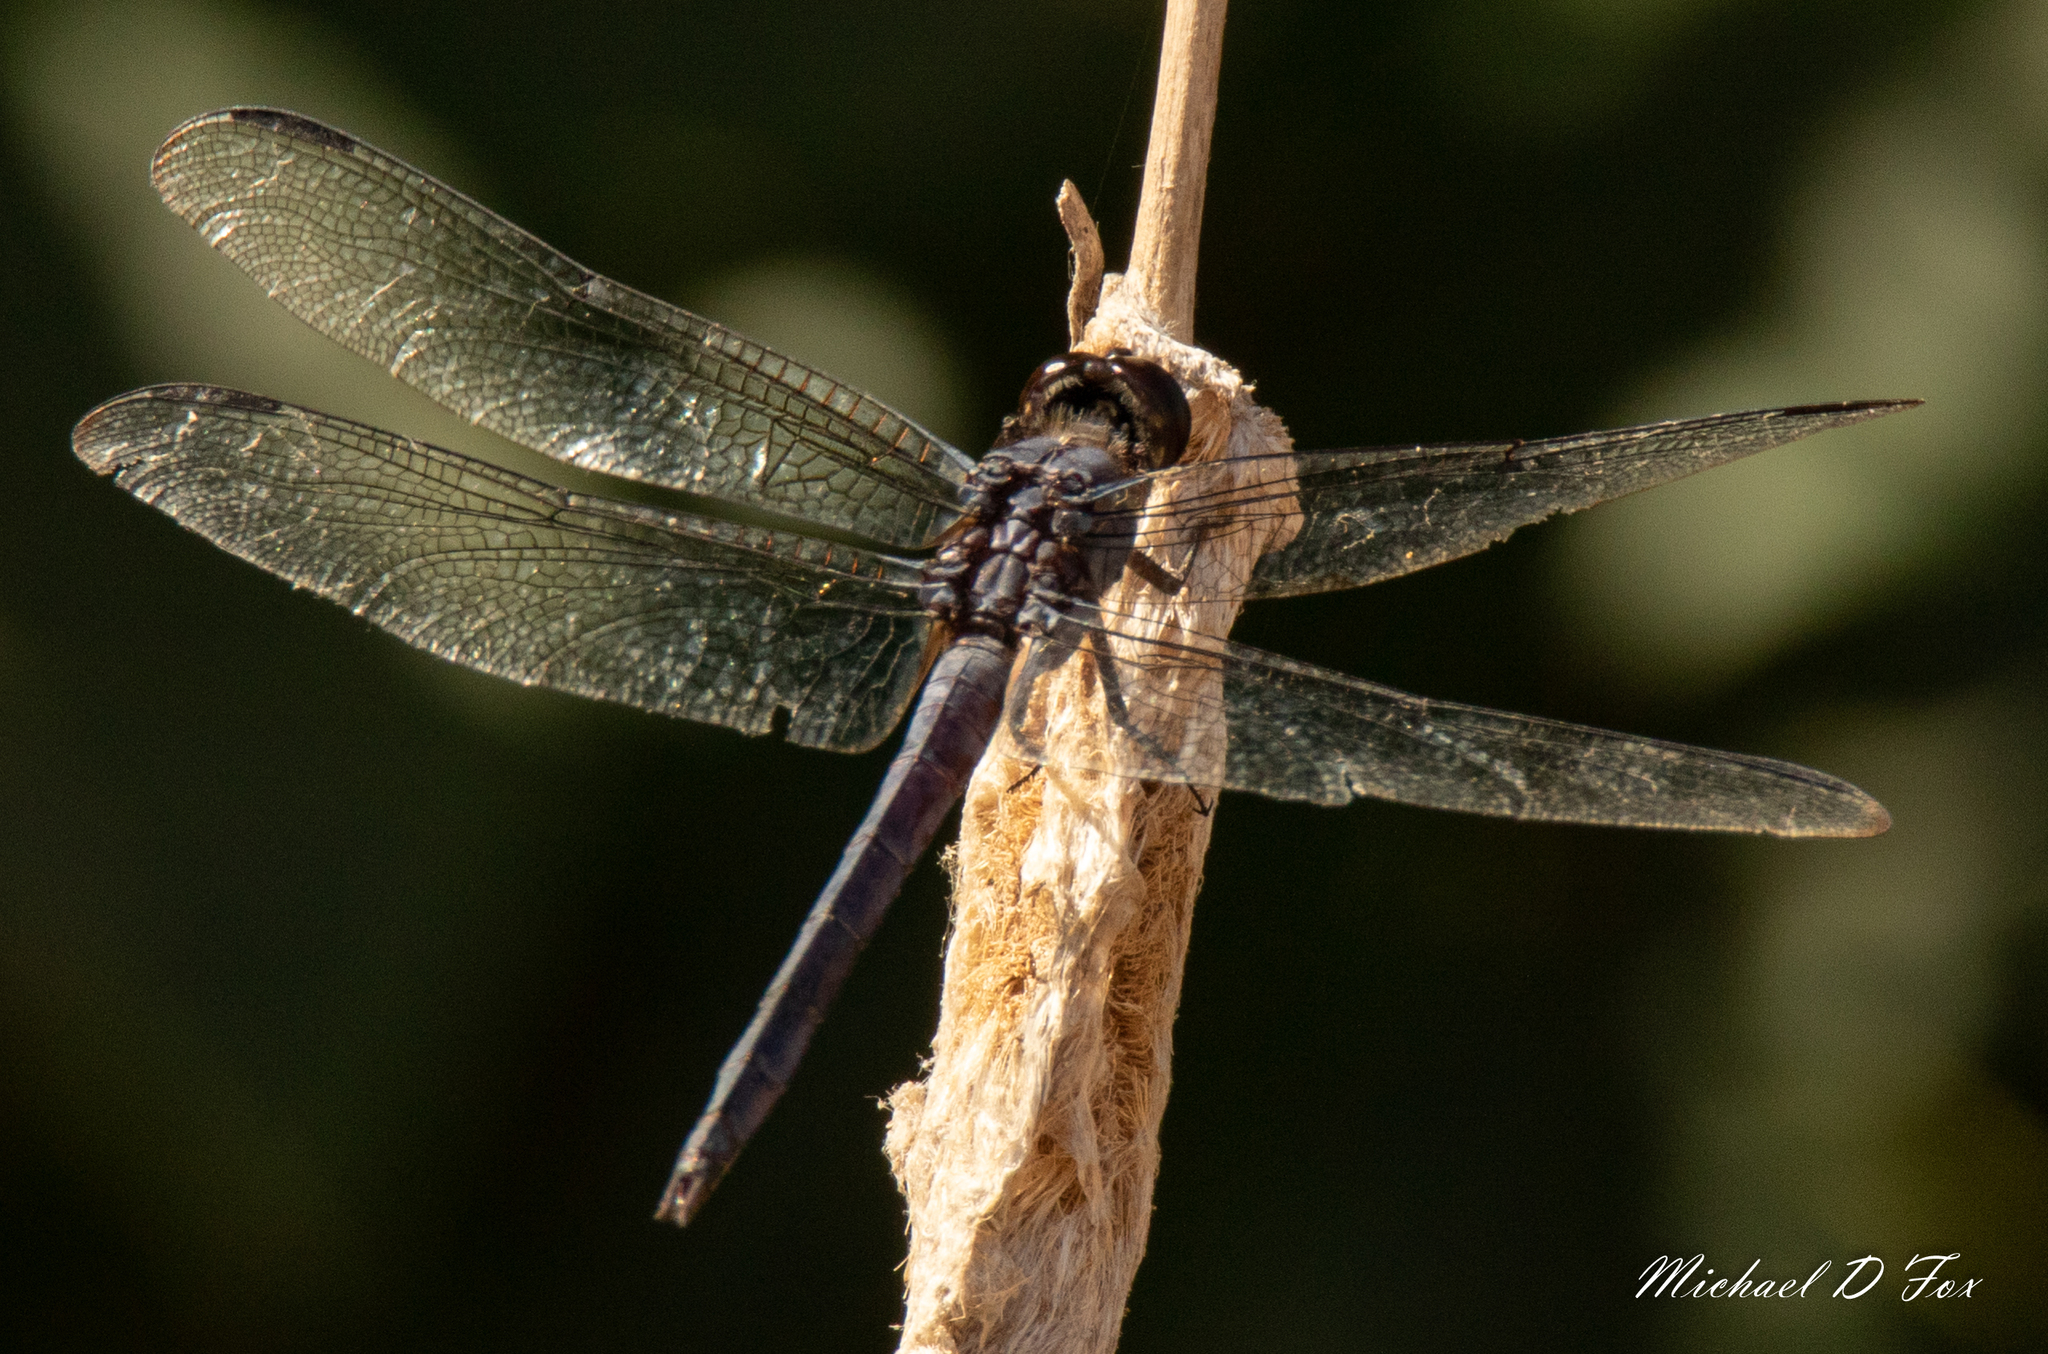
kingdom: Animalia
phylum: Arthropoda
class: Insecta
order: Odonata
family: Libellulidae
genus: Libellula
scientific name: Libellula incesta
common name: Slaty skimmer
